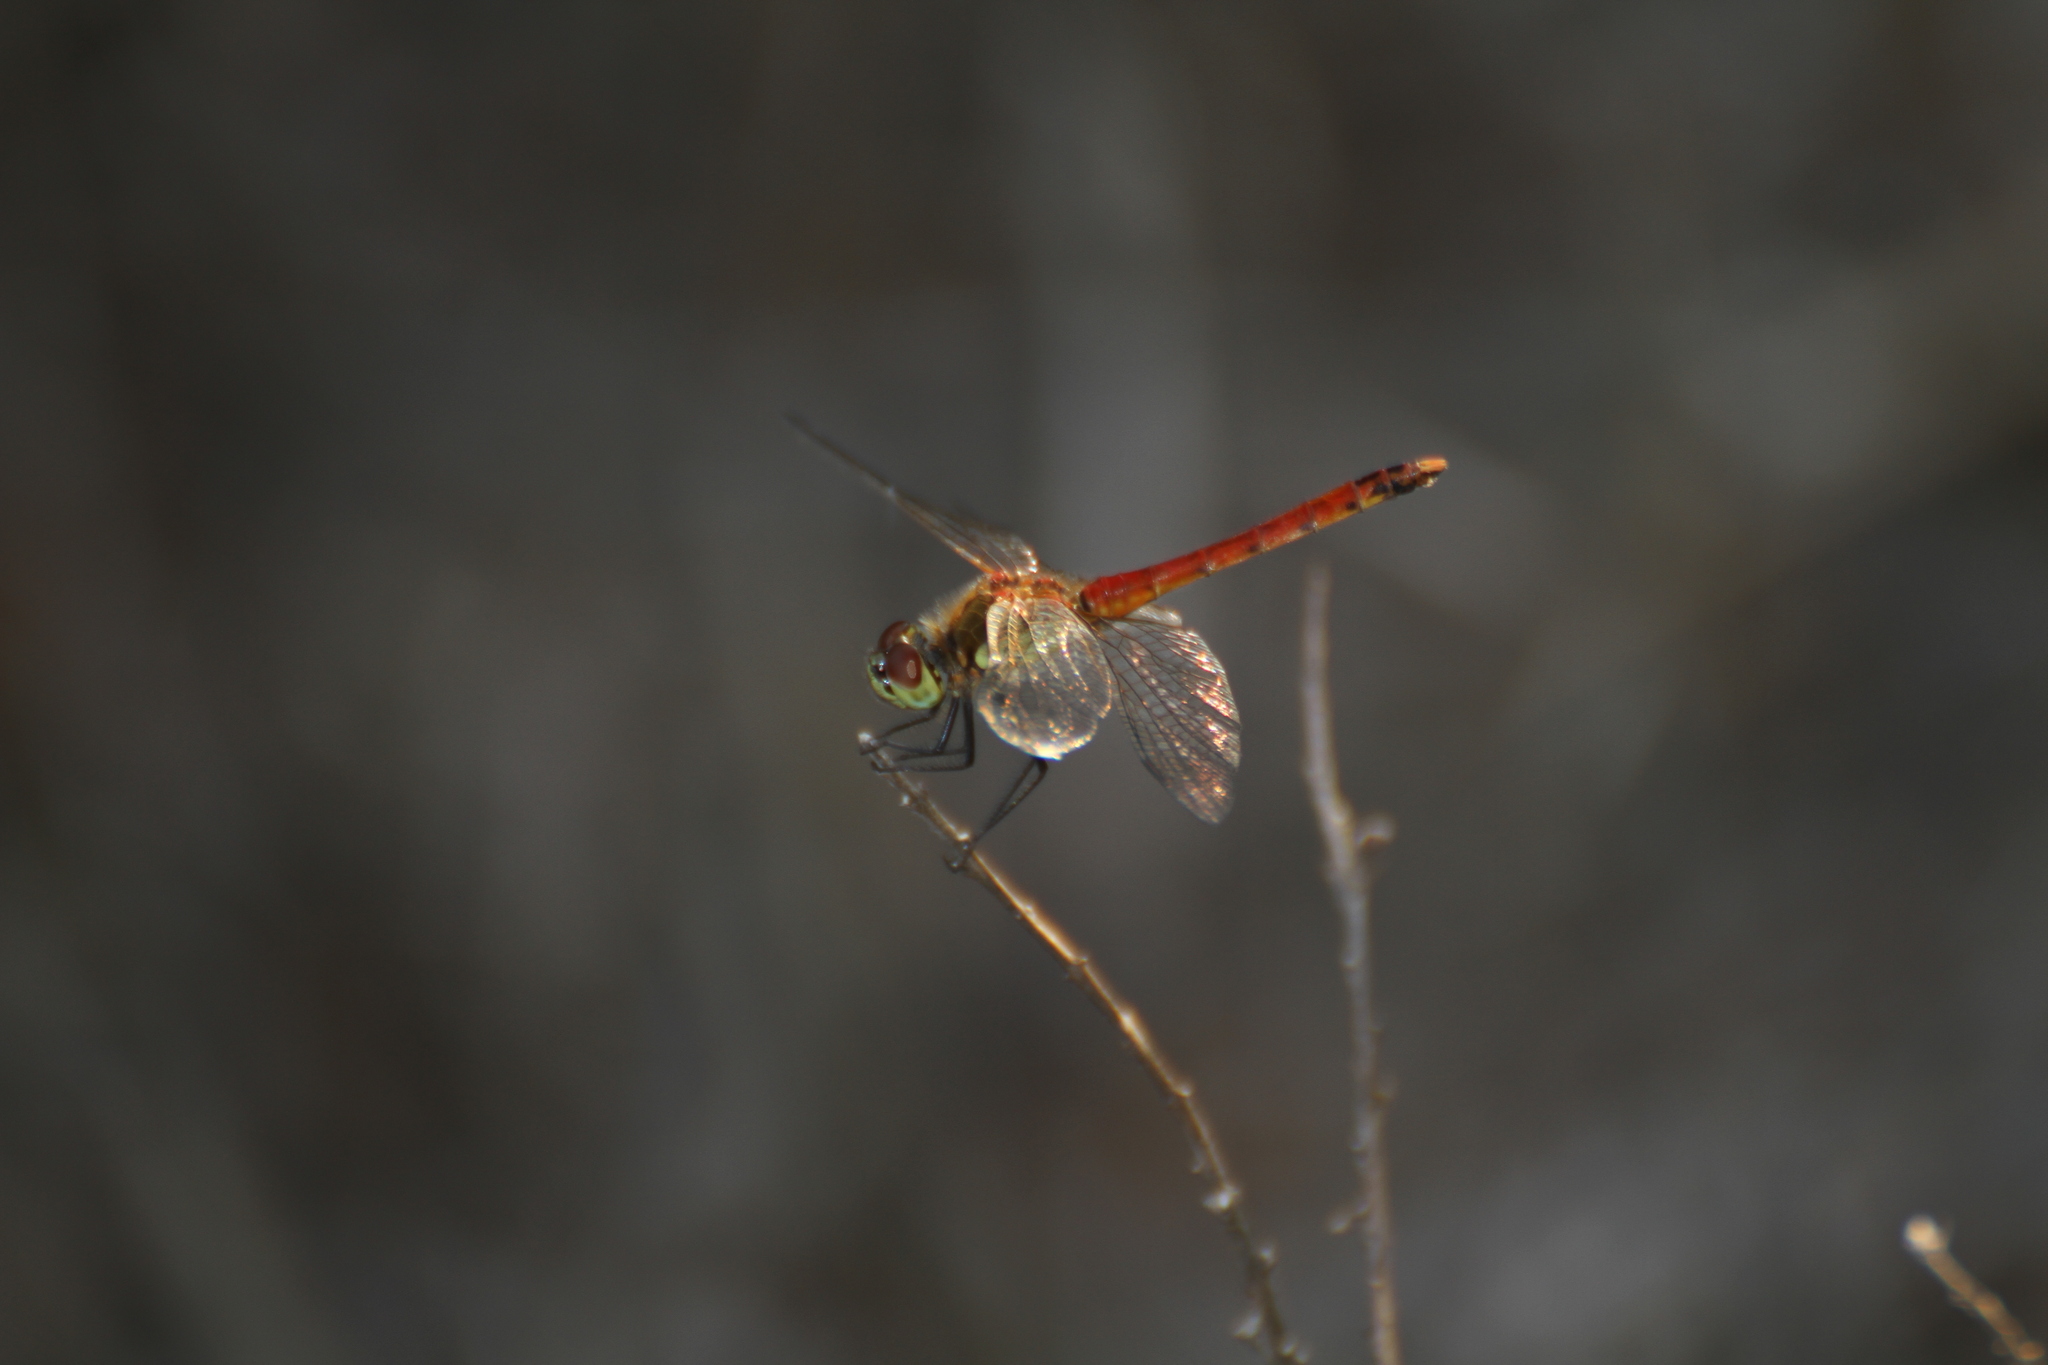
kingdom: Animalia
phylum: Arthropoda
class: Insecta
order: Odonata
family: Libellulidae
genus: Sympetrum
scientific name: Sympetrum depressiusculum
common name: Spotted darter
